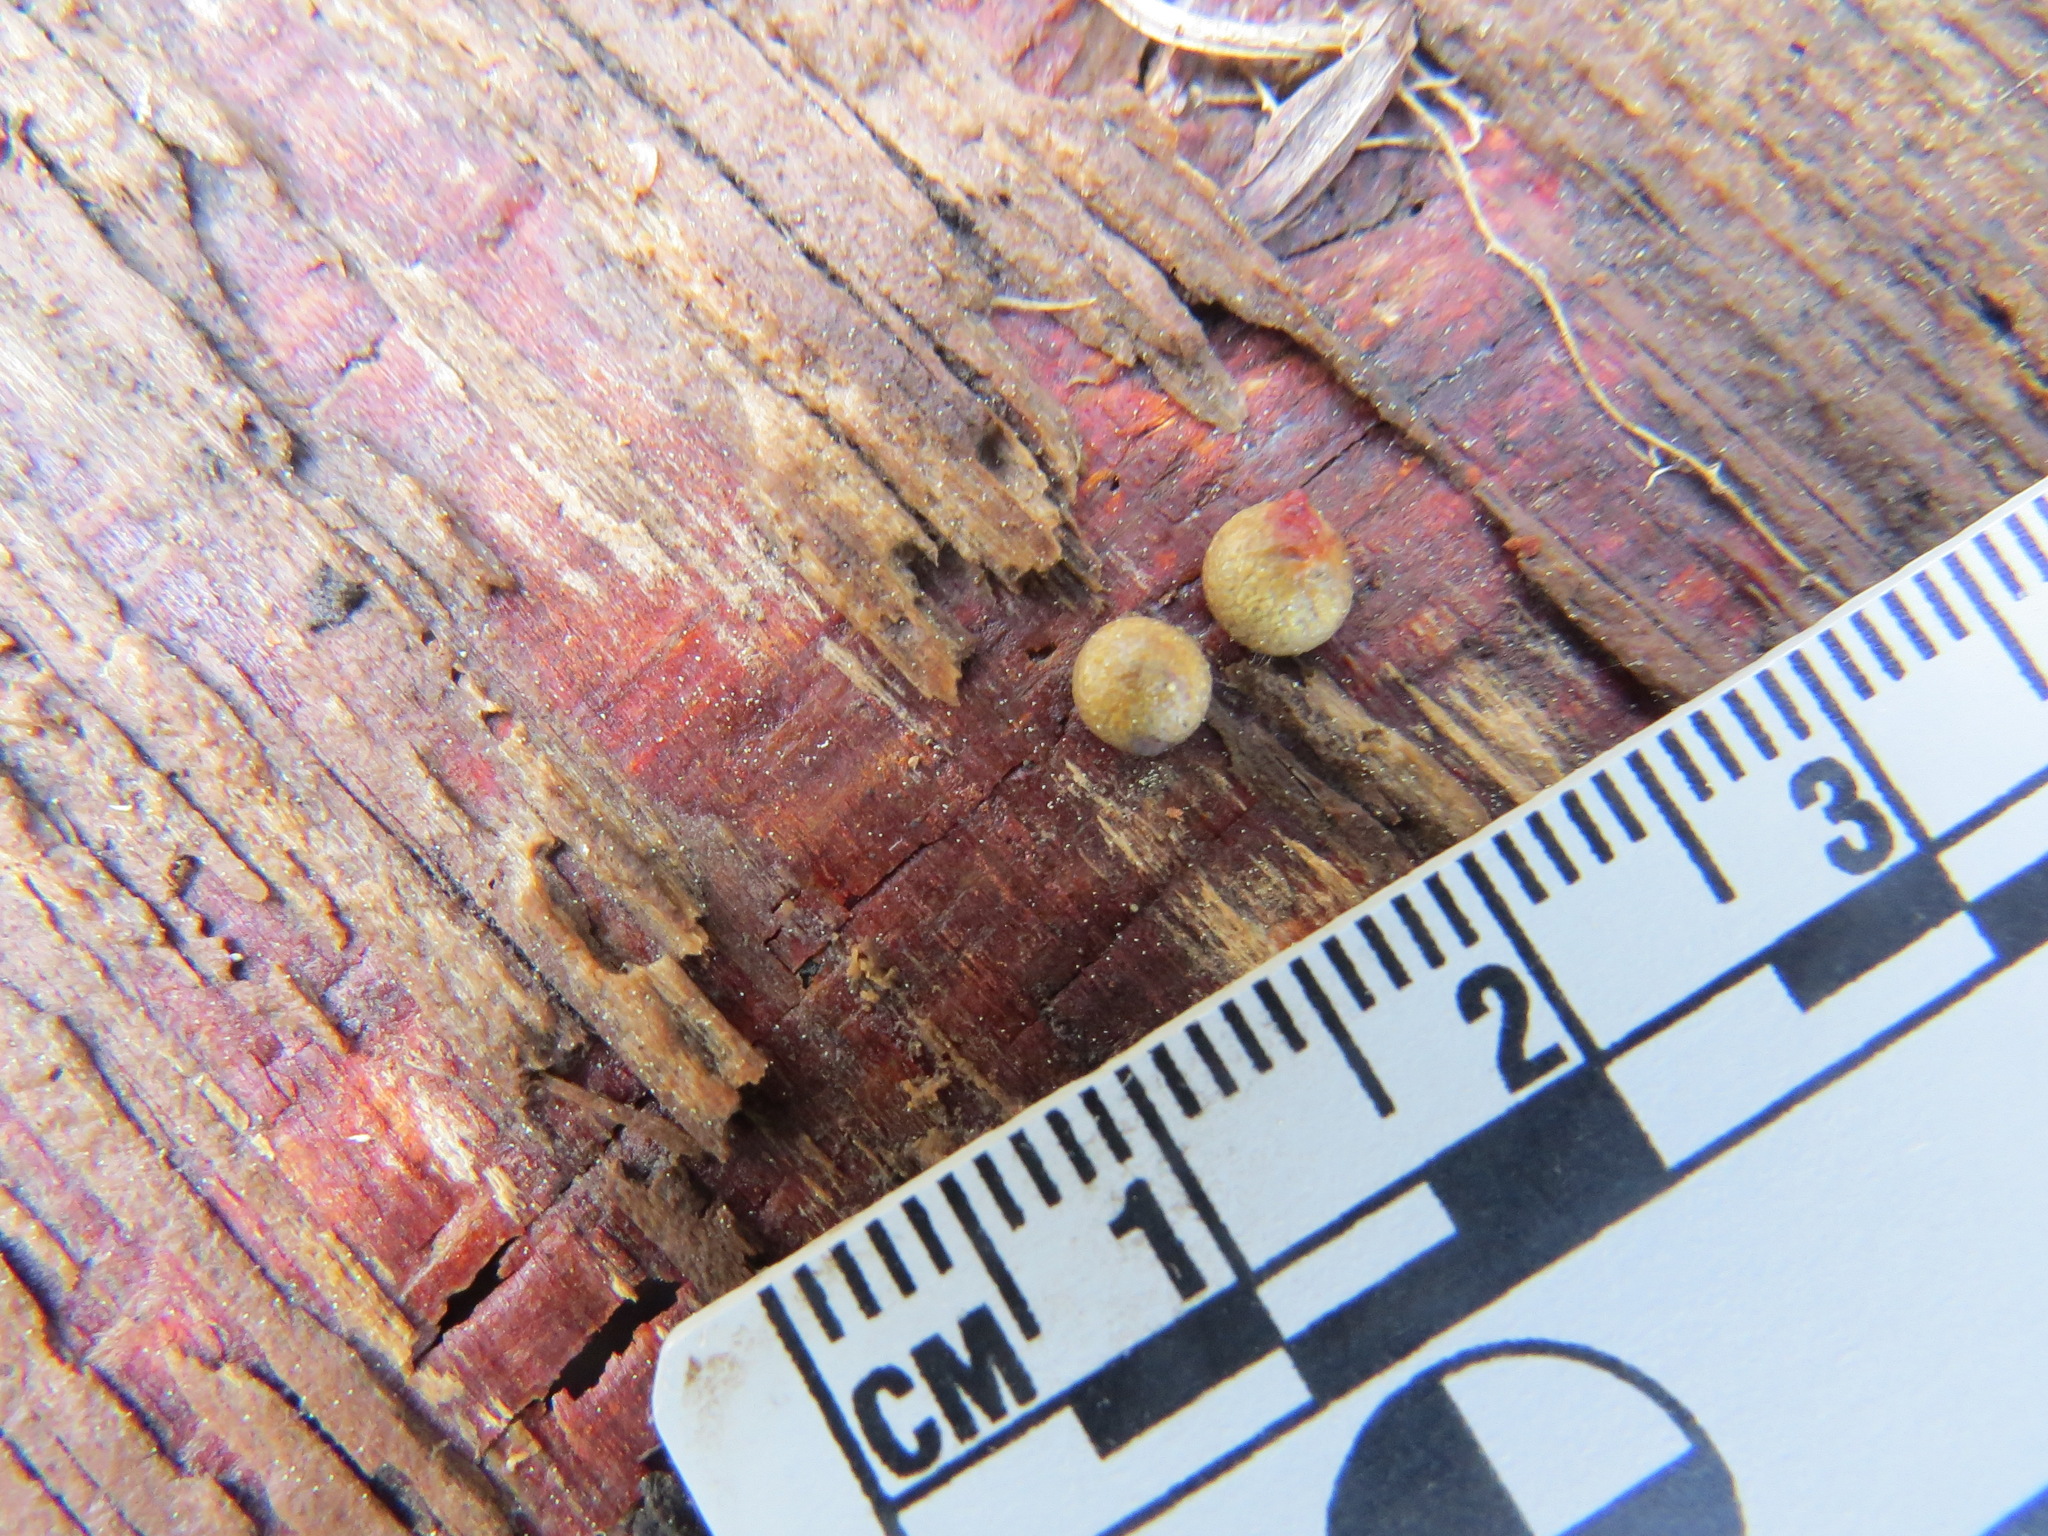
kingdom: Protozoa
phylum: Mycetozoa
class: Myxomycetes
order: Cribrariales
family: Tubiferaceae
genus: Lycogala
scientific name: Lycogala epidendrum
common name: Wolf's milk
